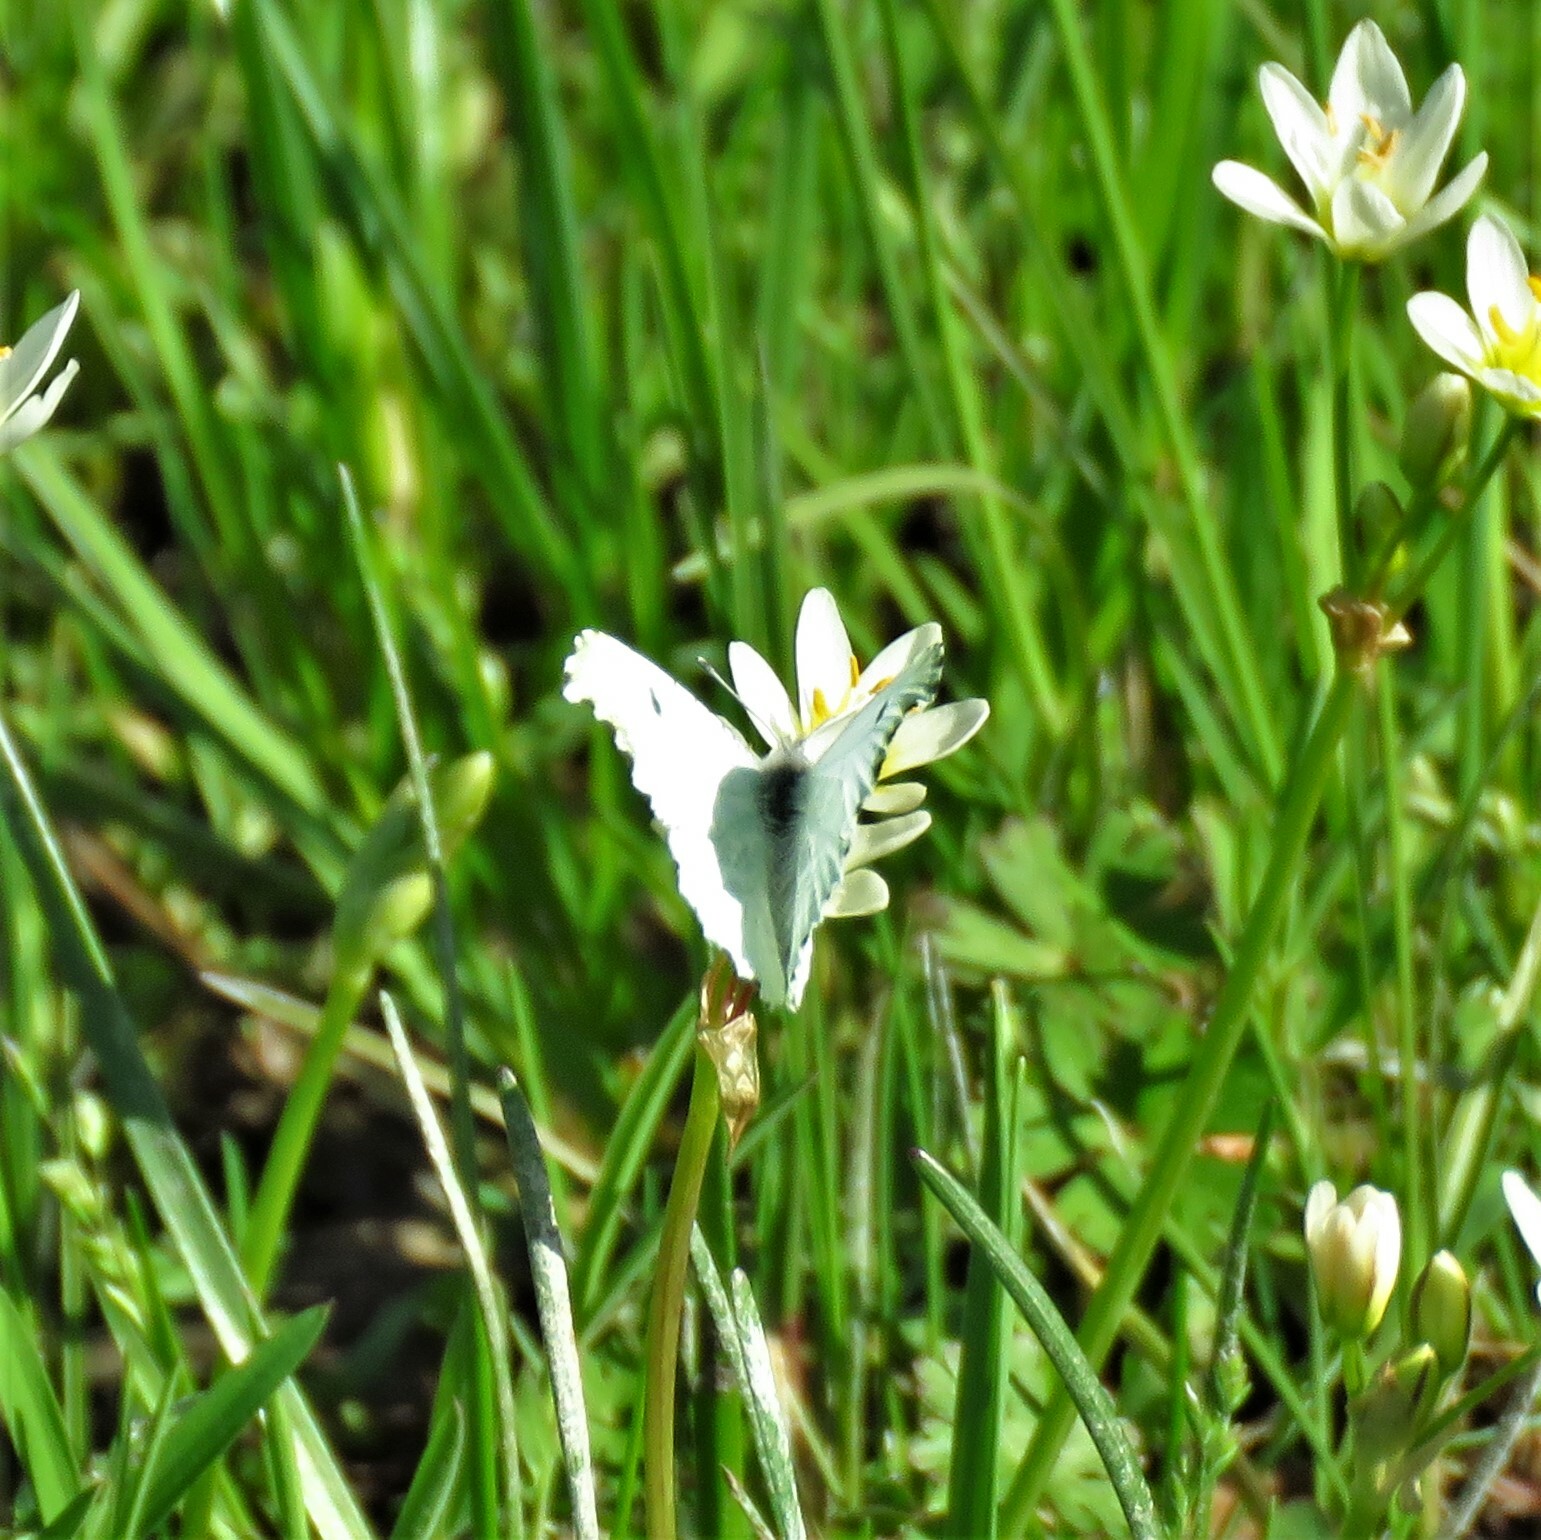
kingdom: Animalia
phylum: Arthropoda
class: Insecta
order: Lepidoptera
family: Pieridae
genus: Pontia
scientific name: Pontia protodice
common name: Checkered white
